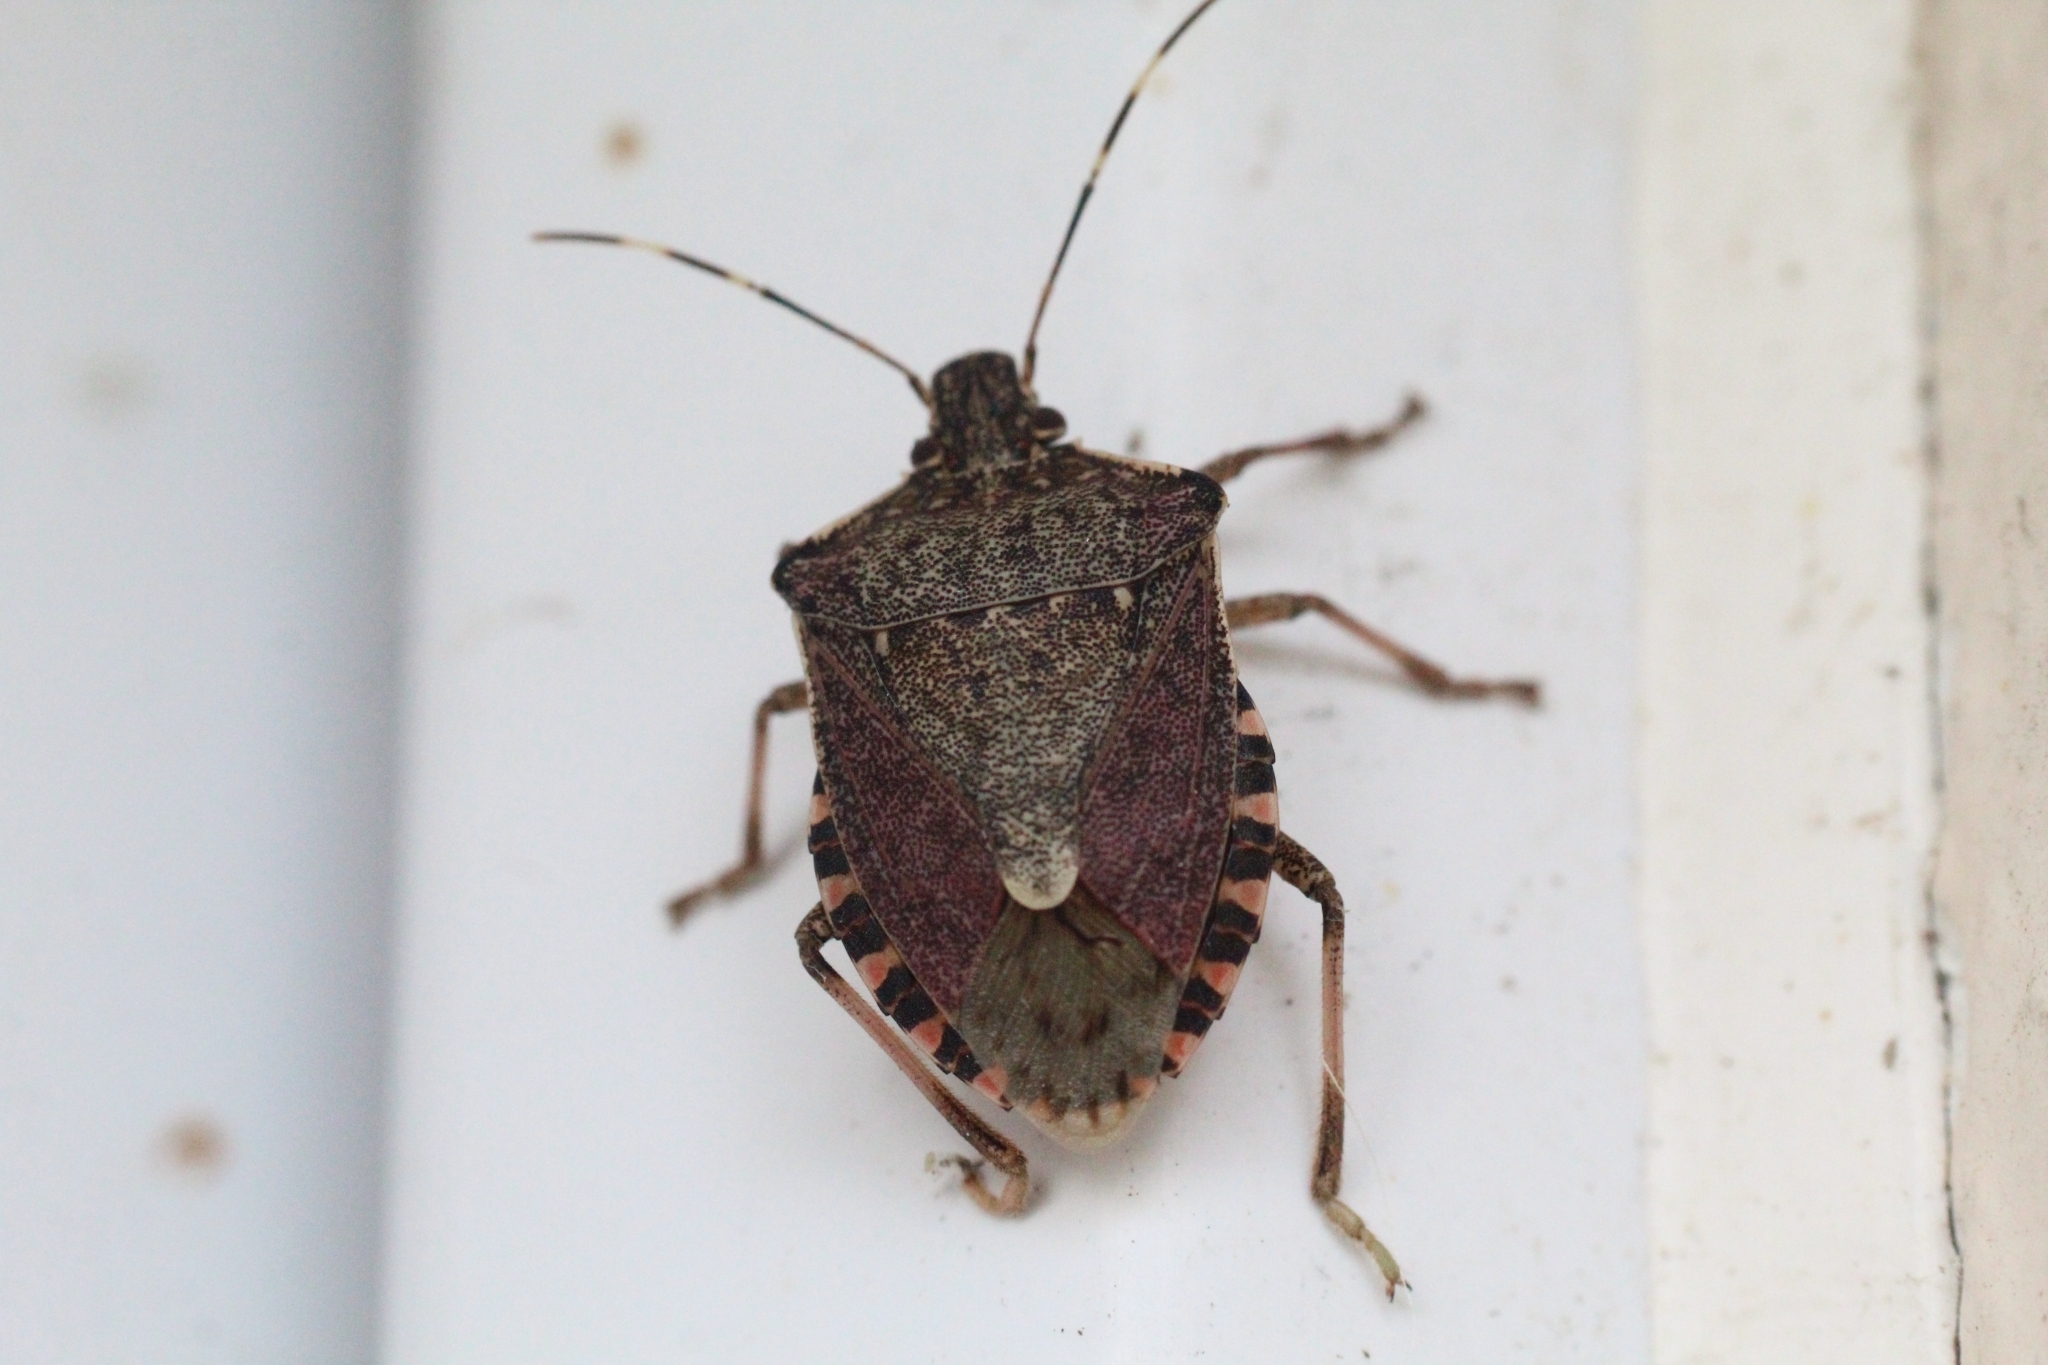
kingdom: Animalia
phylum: Arthropoda
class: Insecta
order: Hemiptera
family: Pentatomidae
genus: Halyomorpha
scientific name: Halyomorpha halys
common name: Brown marmorated stink bug
